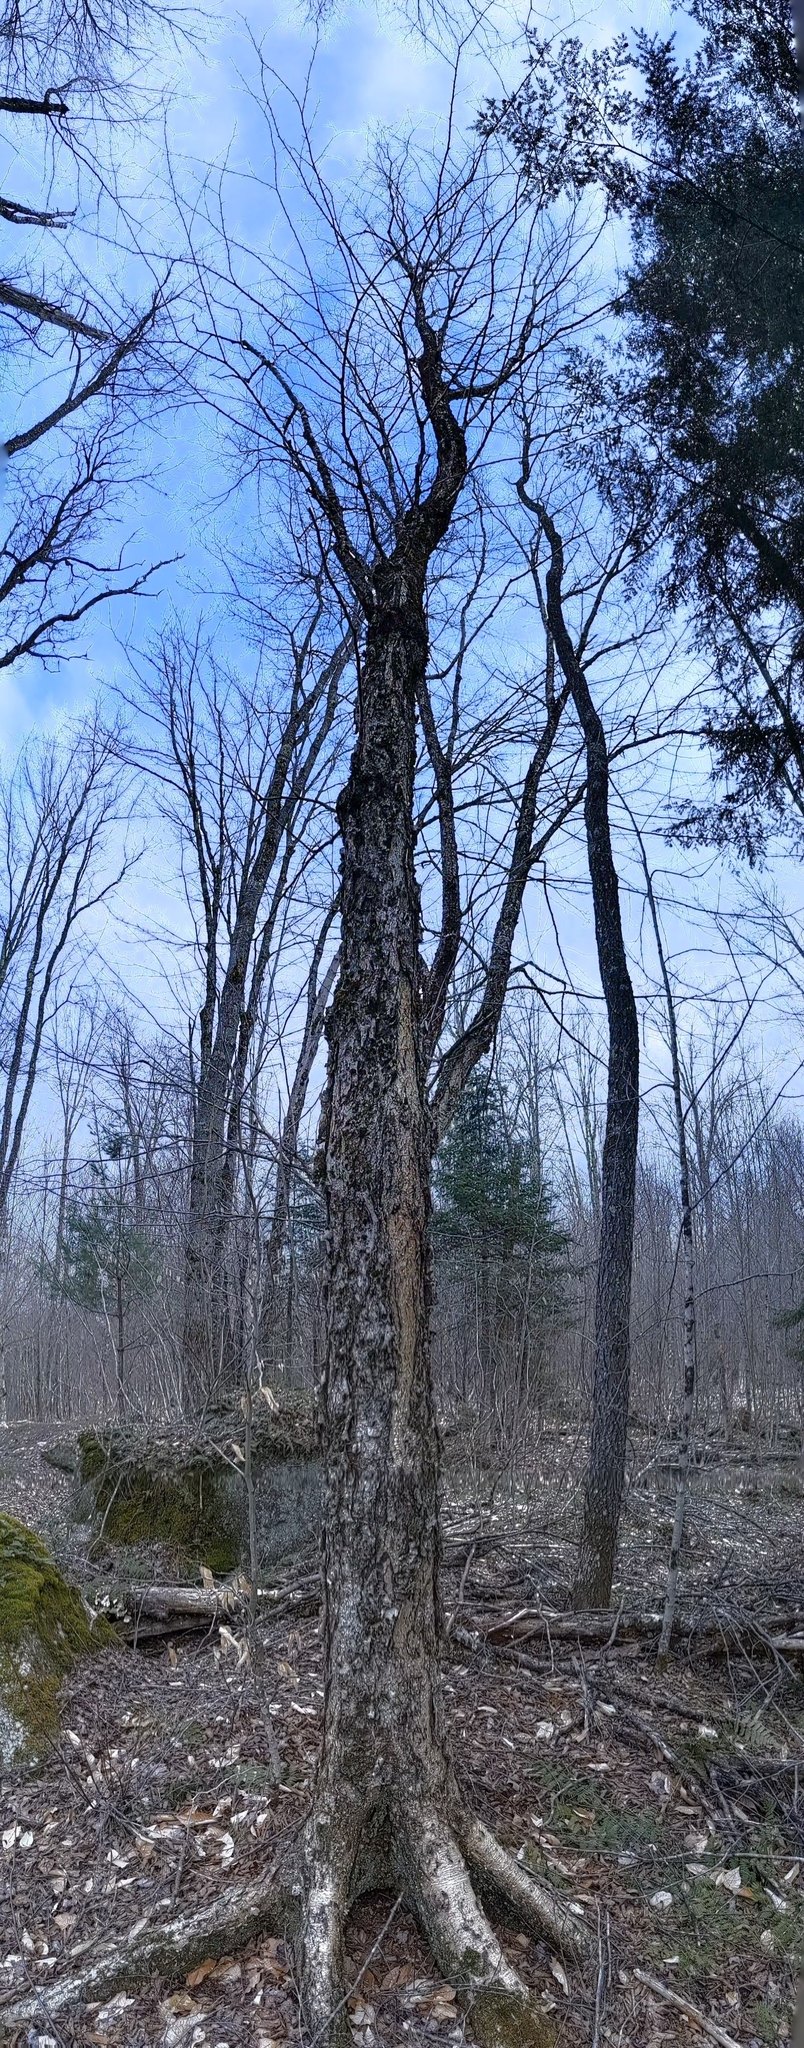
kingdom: Plantae
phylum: Tracheophyta
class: Magnoliopsida
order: Fagales
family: Betulaceae
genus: Betula
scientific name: Betula alleghaniensis
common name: Yellow birch
